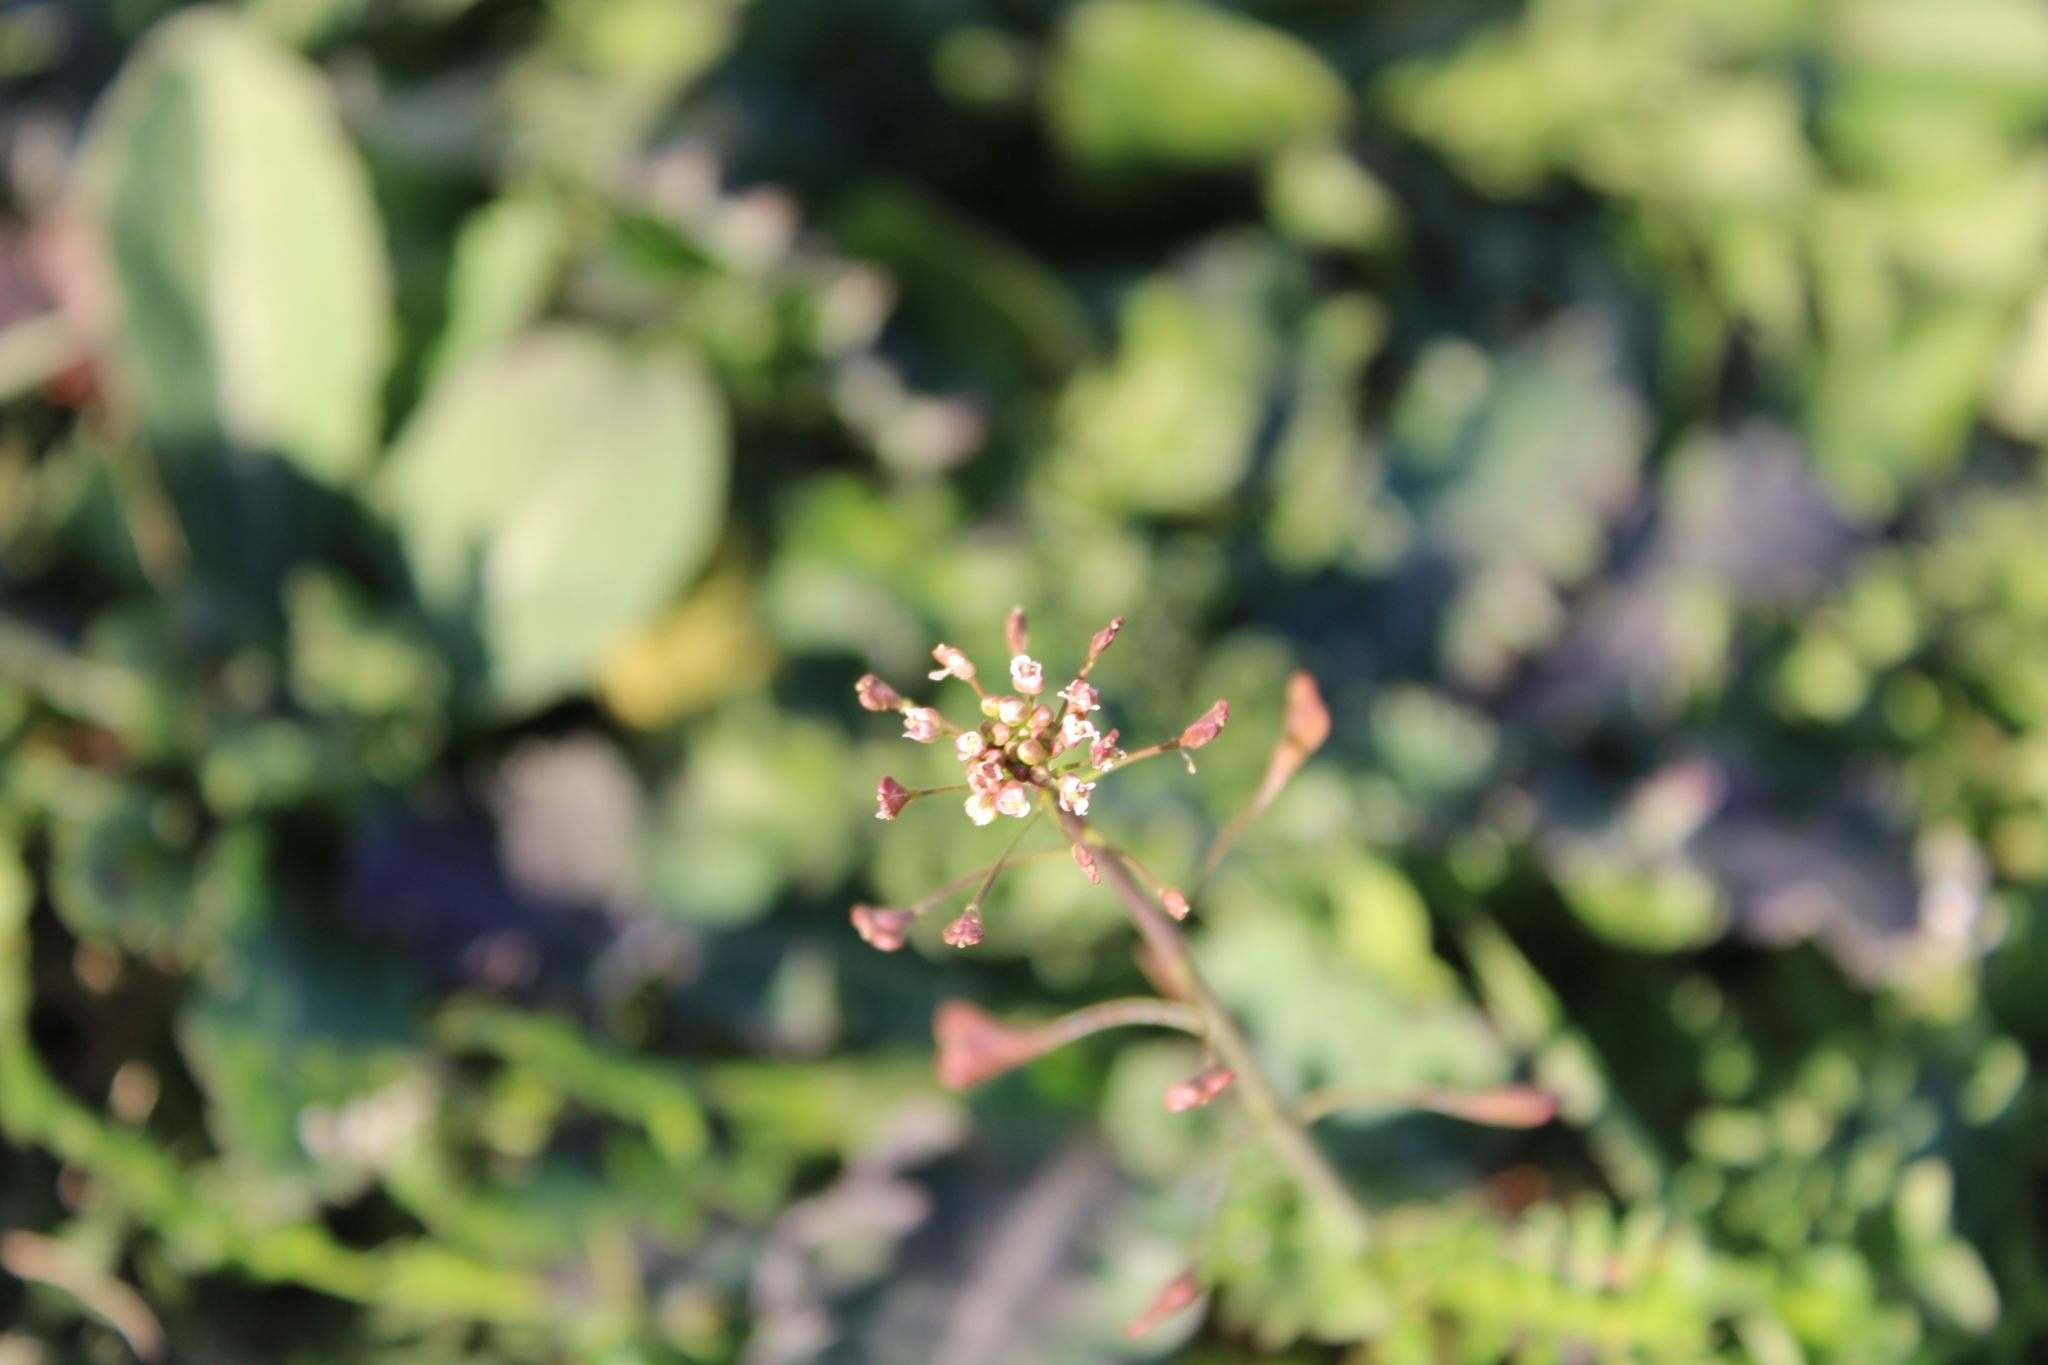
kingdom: Plantae
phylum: Tracheophyta
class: Magnoliopsida
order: Brassicales
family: Brassicaceae
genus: Capsella
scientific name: Capsella bursa-pastoris
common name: Shepherd's purse
